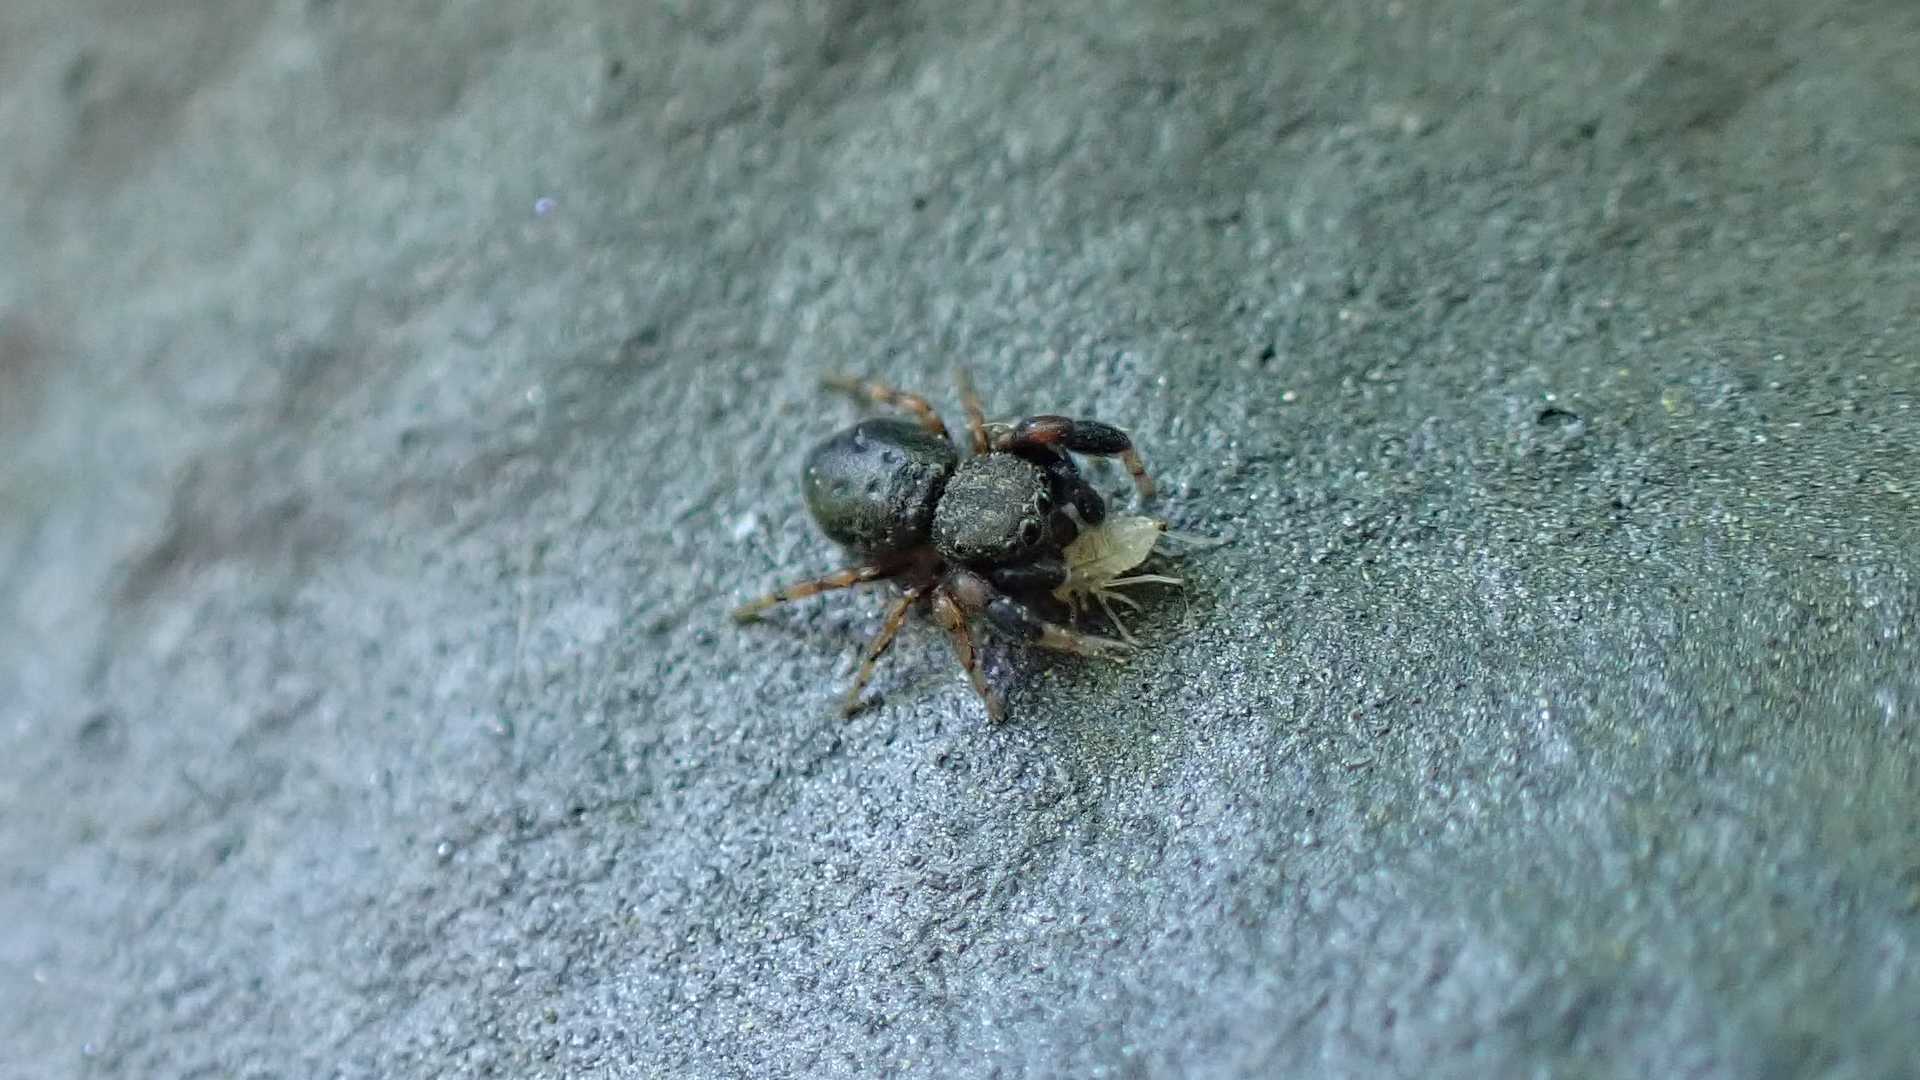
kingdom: Animalia
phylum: Arthropoda
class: Arachnida
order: Araneae
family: Salticidae
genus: Ballus
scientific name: Ballus chalybeius
